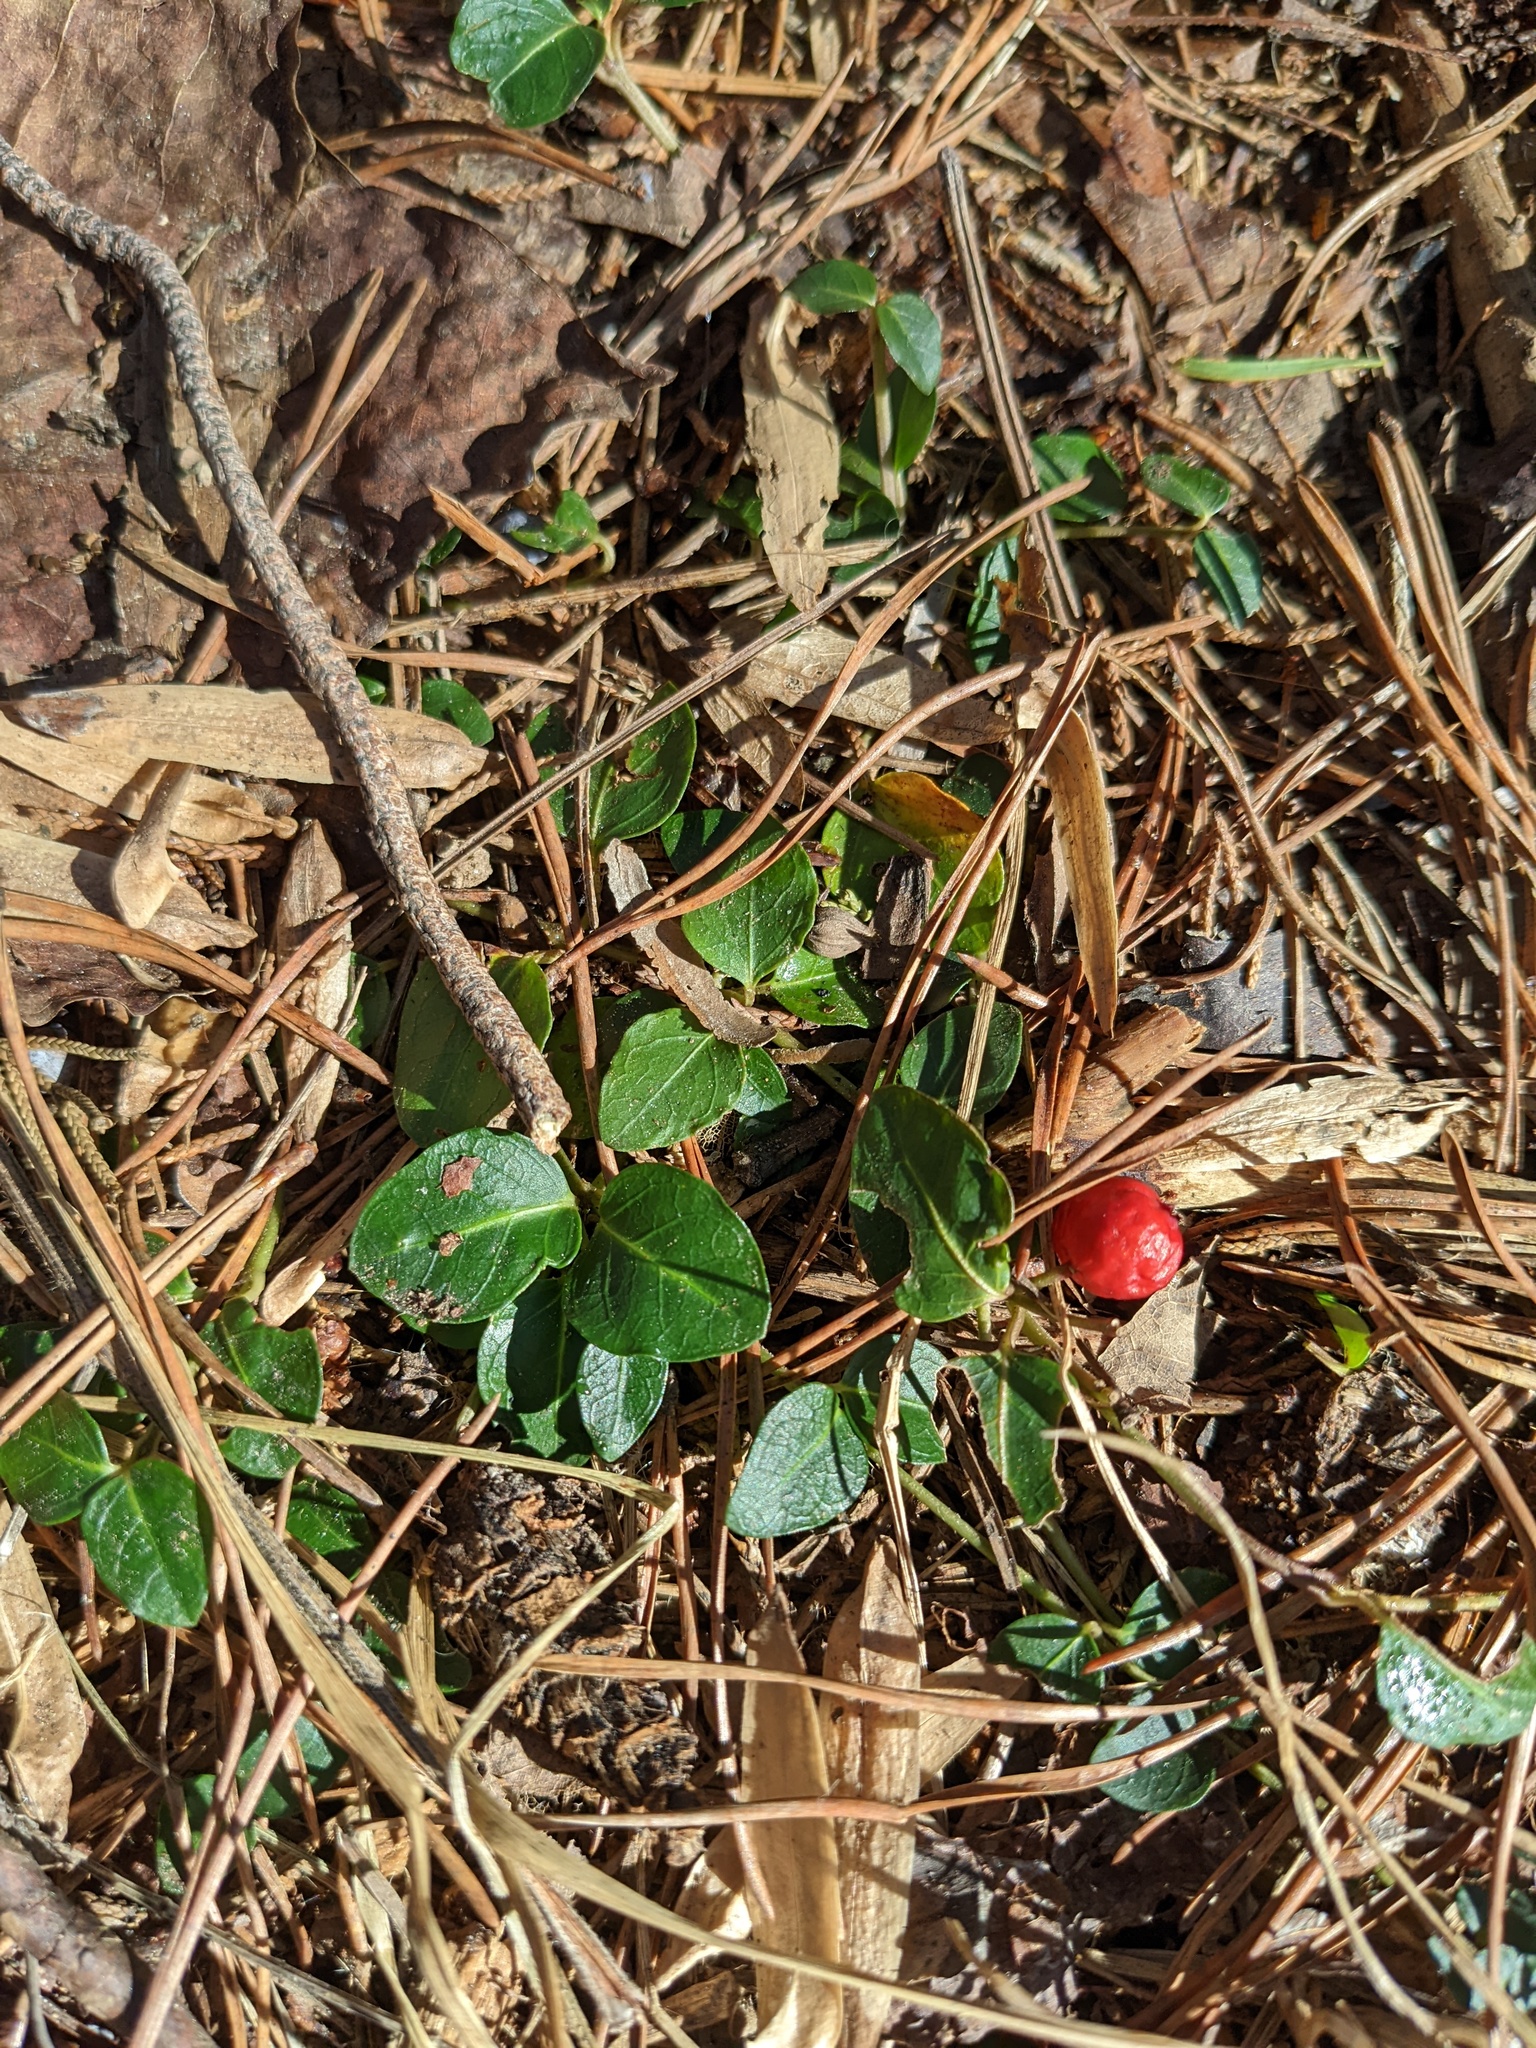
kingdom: Plantae
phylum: Tracheophyta
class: Magnoliopsida
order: Gentianales
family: Rubiaceae
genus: Mitchella
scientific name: Mitchella repens
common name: Partridge-berry
